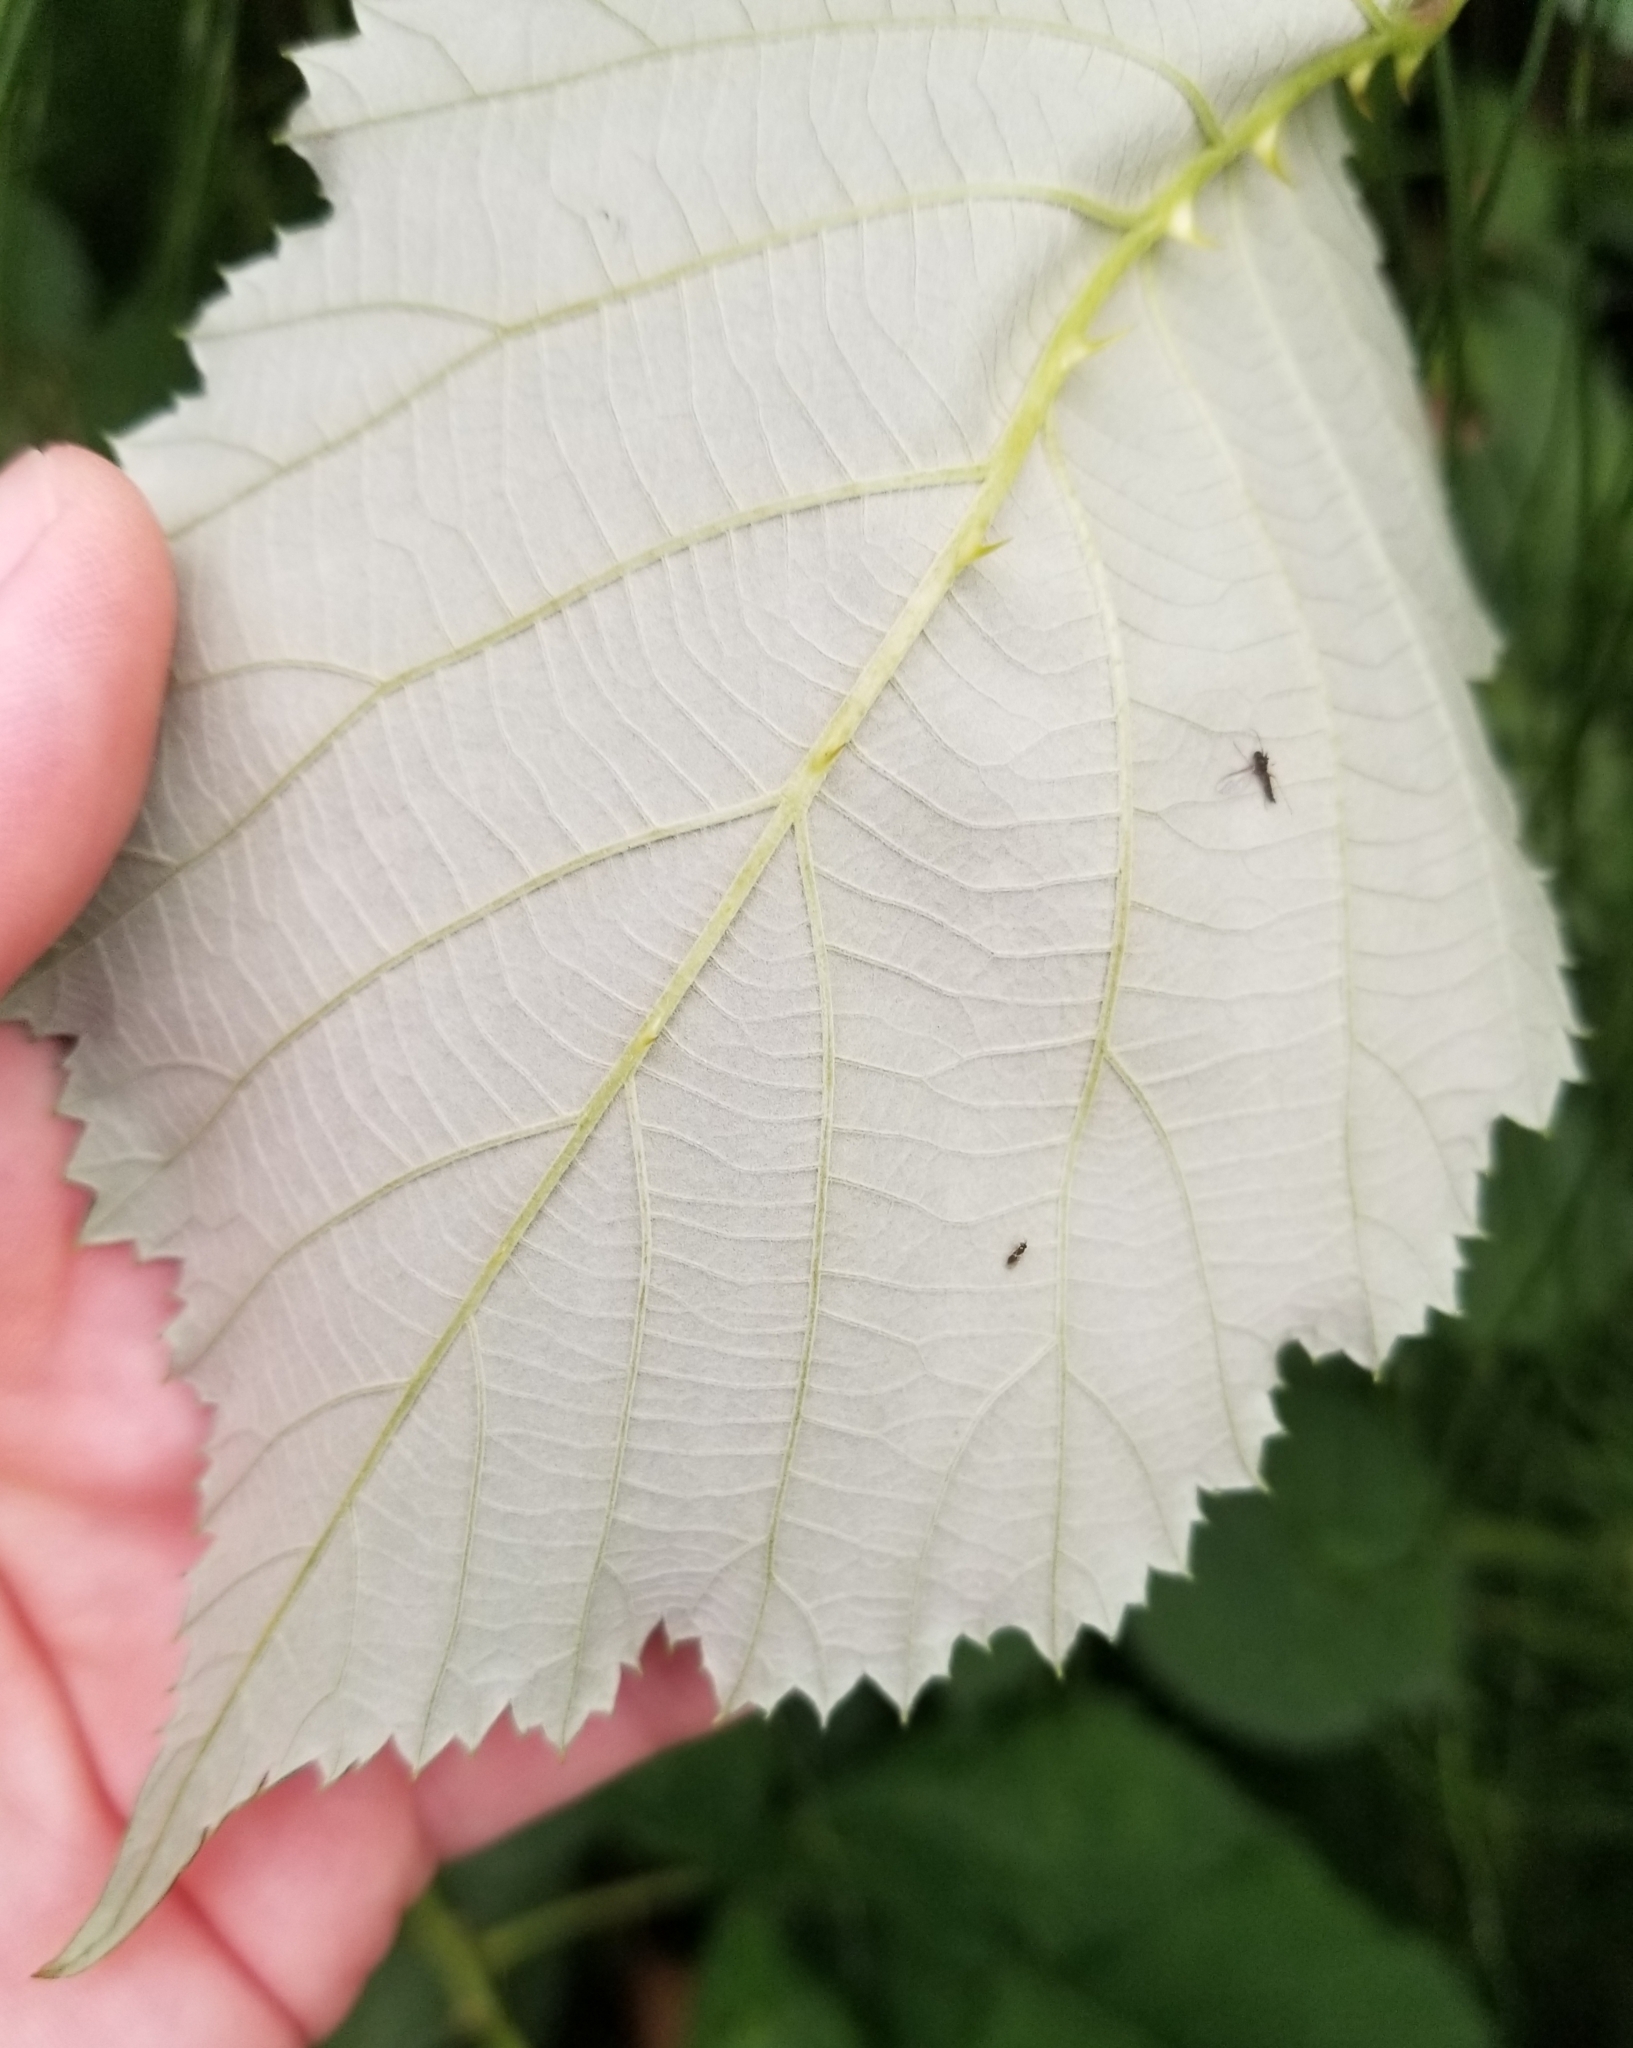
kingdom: Plantae
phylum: Tracheophyta
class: Magnoliopsida
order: Rosales
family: Rosaceae
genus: Rubus
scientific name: Rubus bifrons
